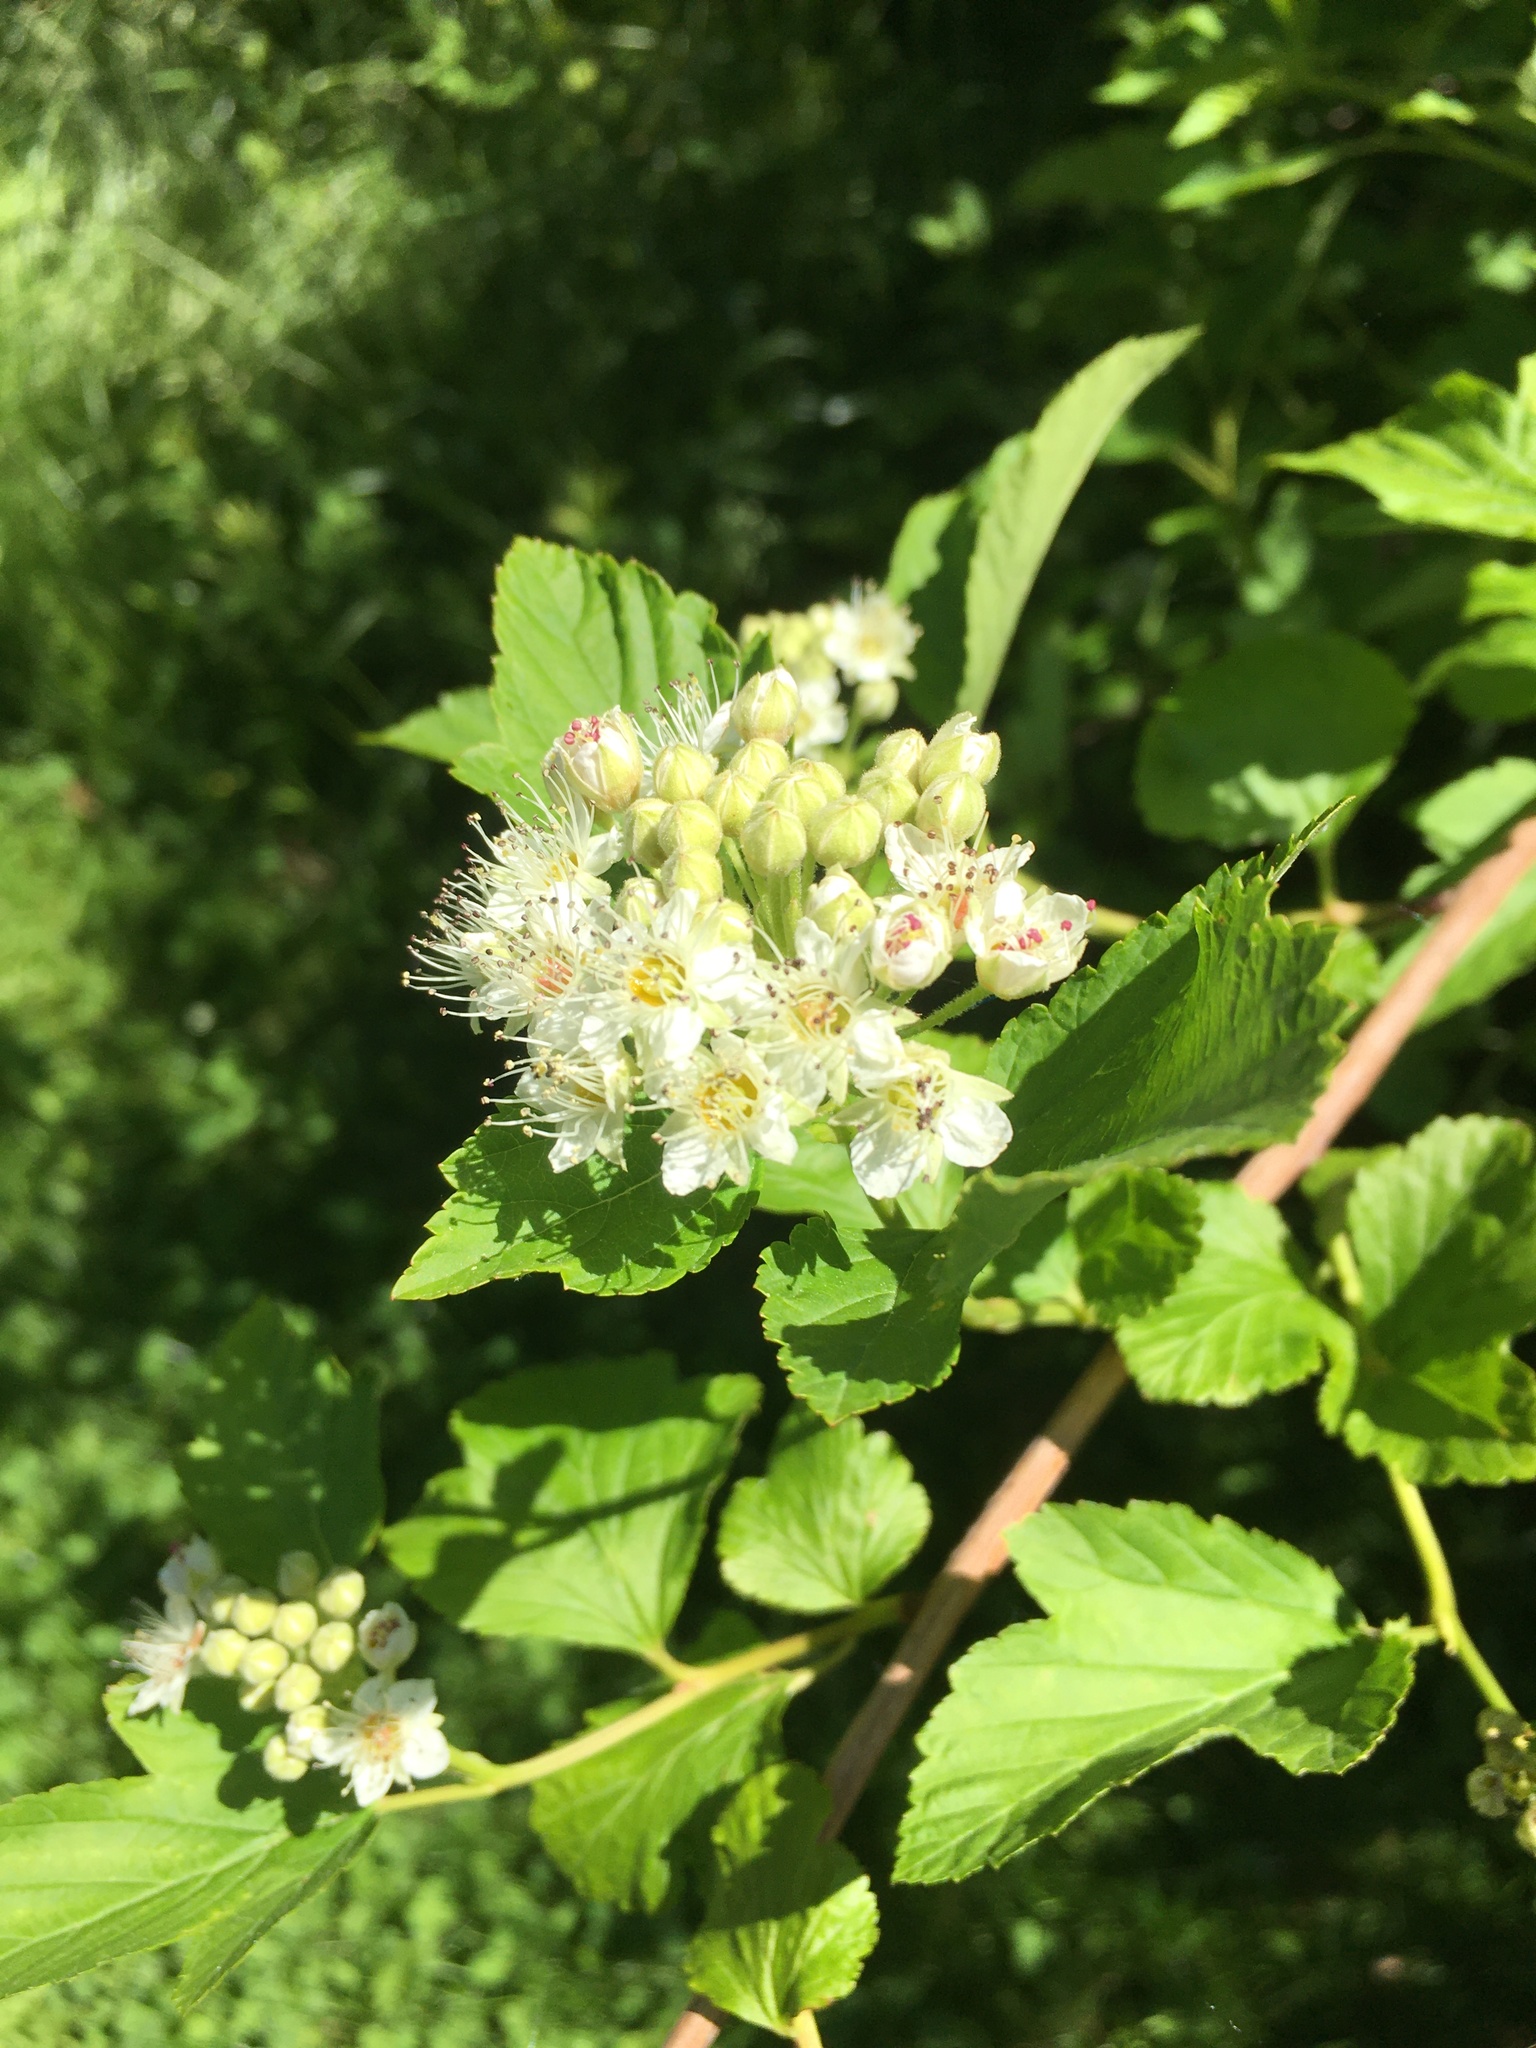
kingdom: Plantae
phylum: Tracheophyta
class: Magnoliopsida
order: Rosales
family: Rosaceae
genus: Physocarpus
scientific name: Physocarpus opulifolius
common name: Ninebark
